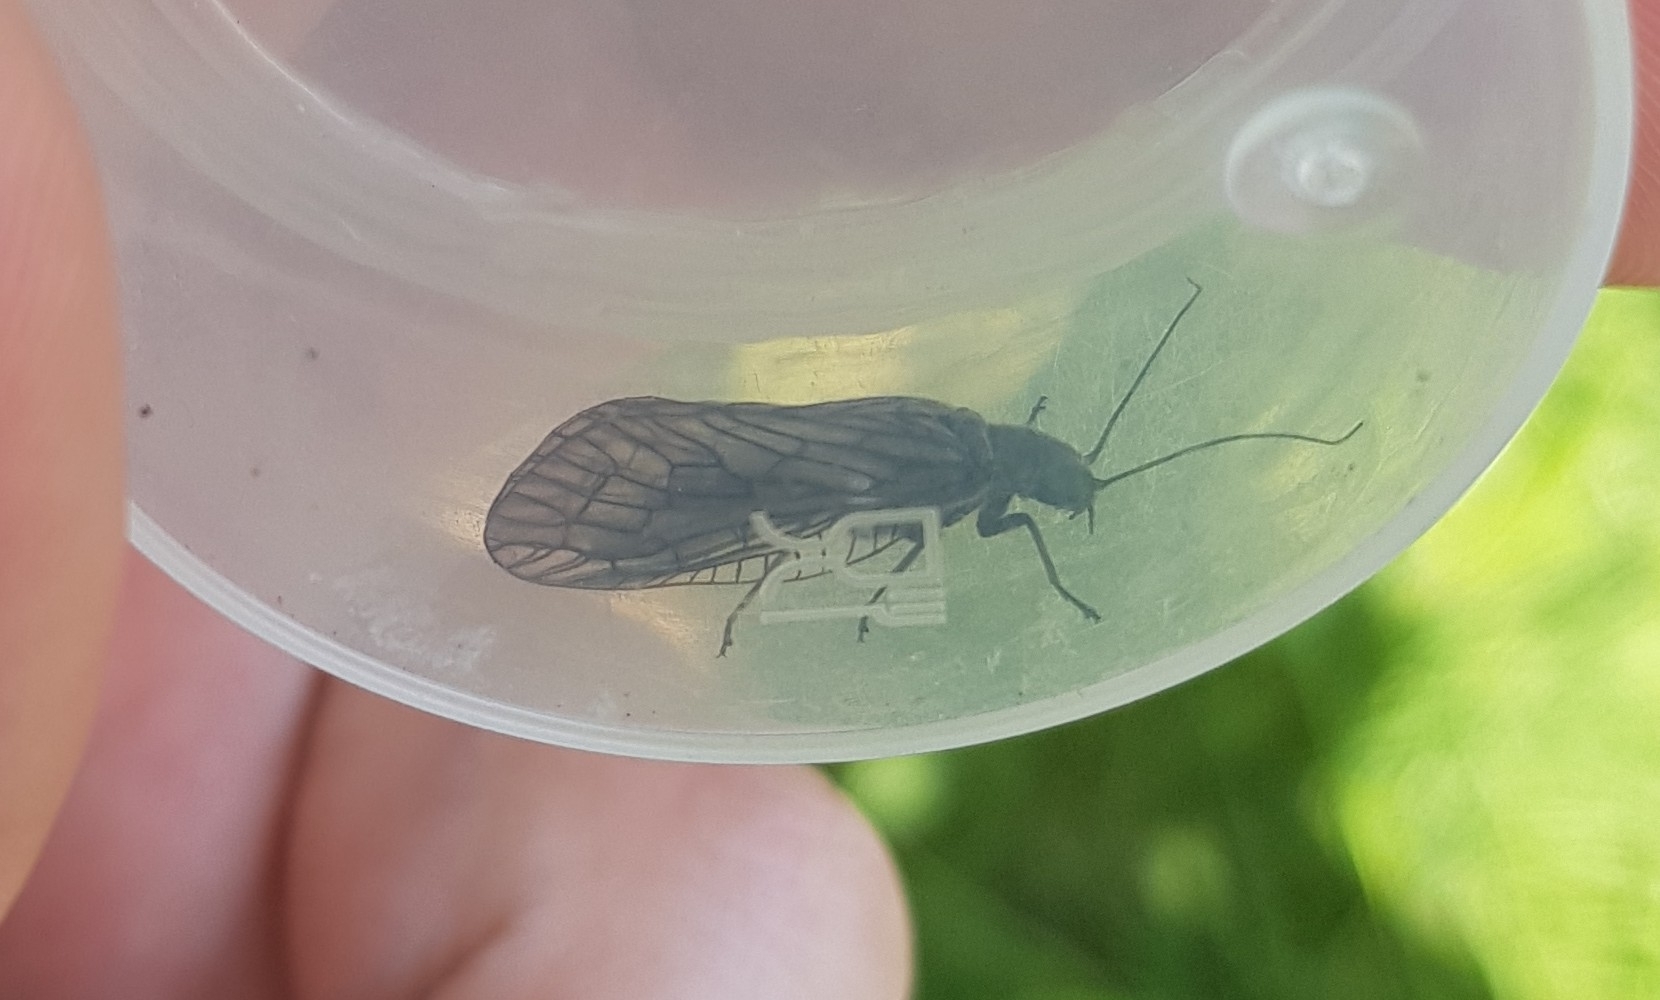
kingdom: Animalia
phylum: Arthropoda
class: Insecta
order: Megaloptera
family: Sialidae
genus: Sialis
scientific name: Sialis
